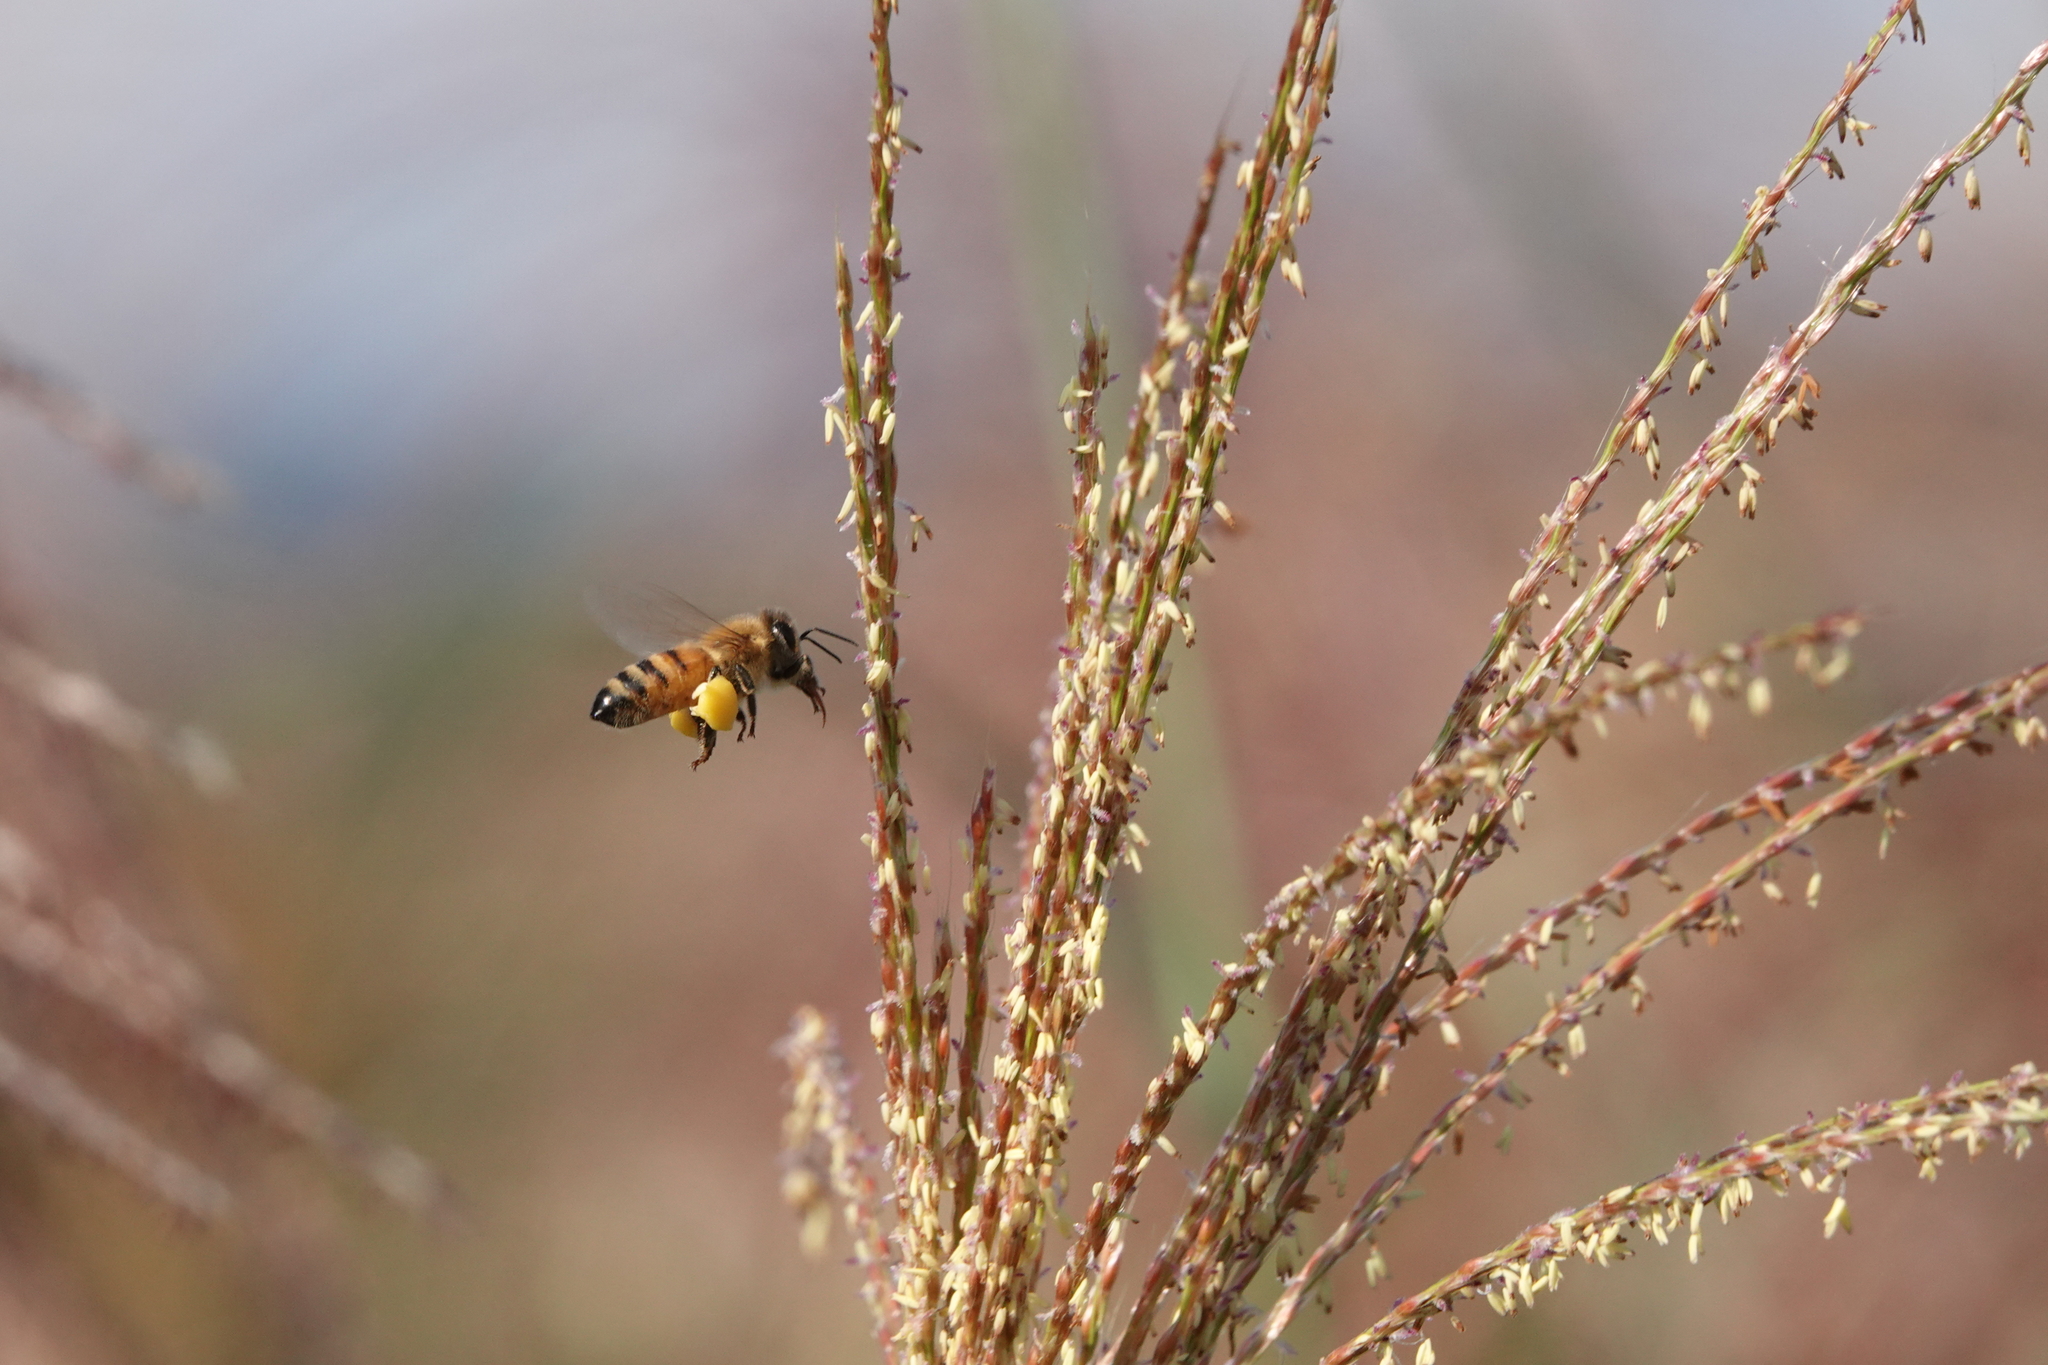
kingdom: Animalia
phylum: Arthropoda
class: Insecta
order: Hymenoptera
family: Apidae
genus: Apis
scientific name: Apis mellifera
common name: Honey bee
